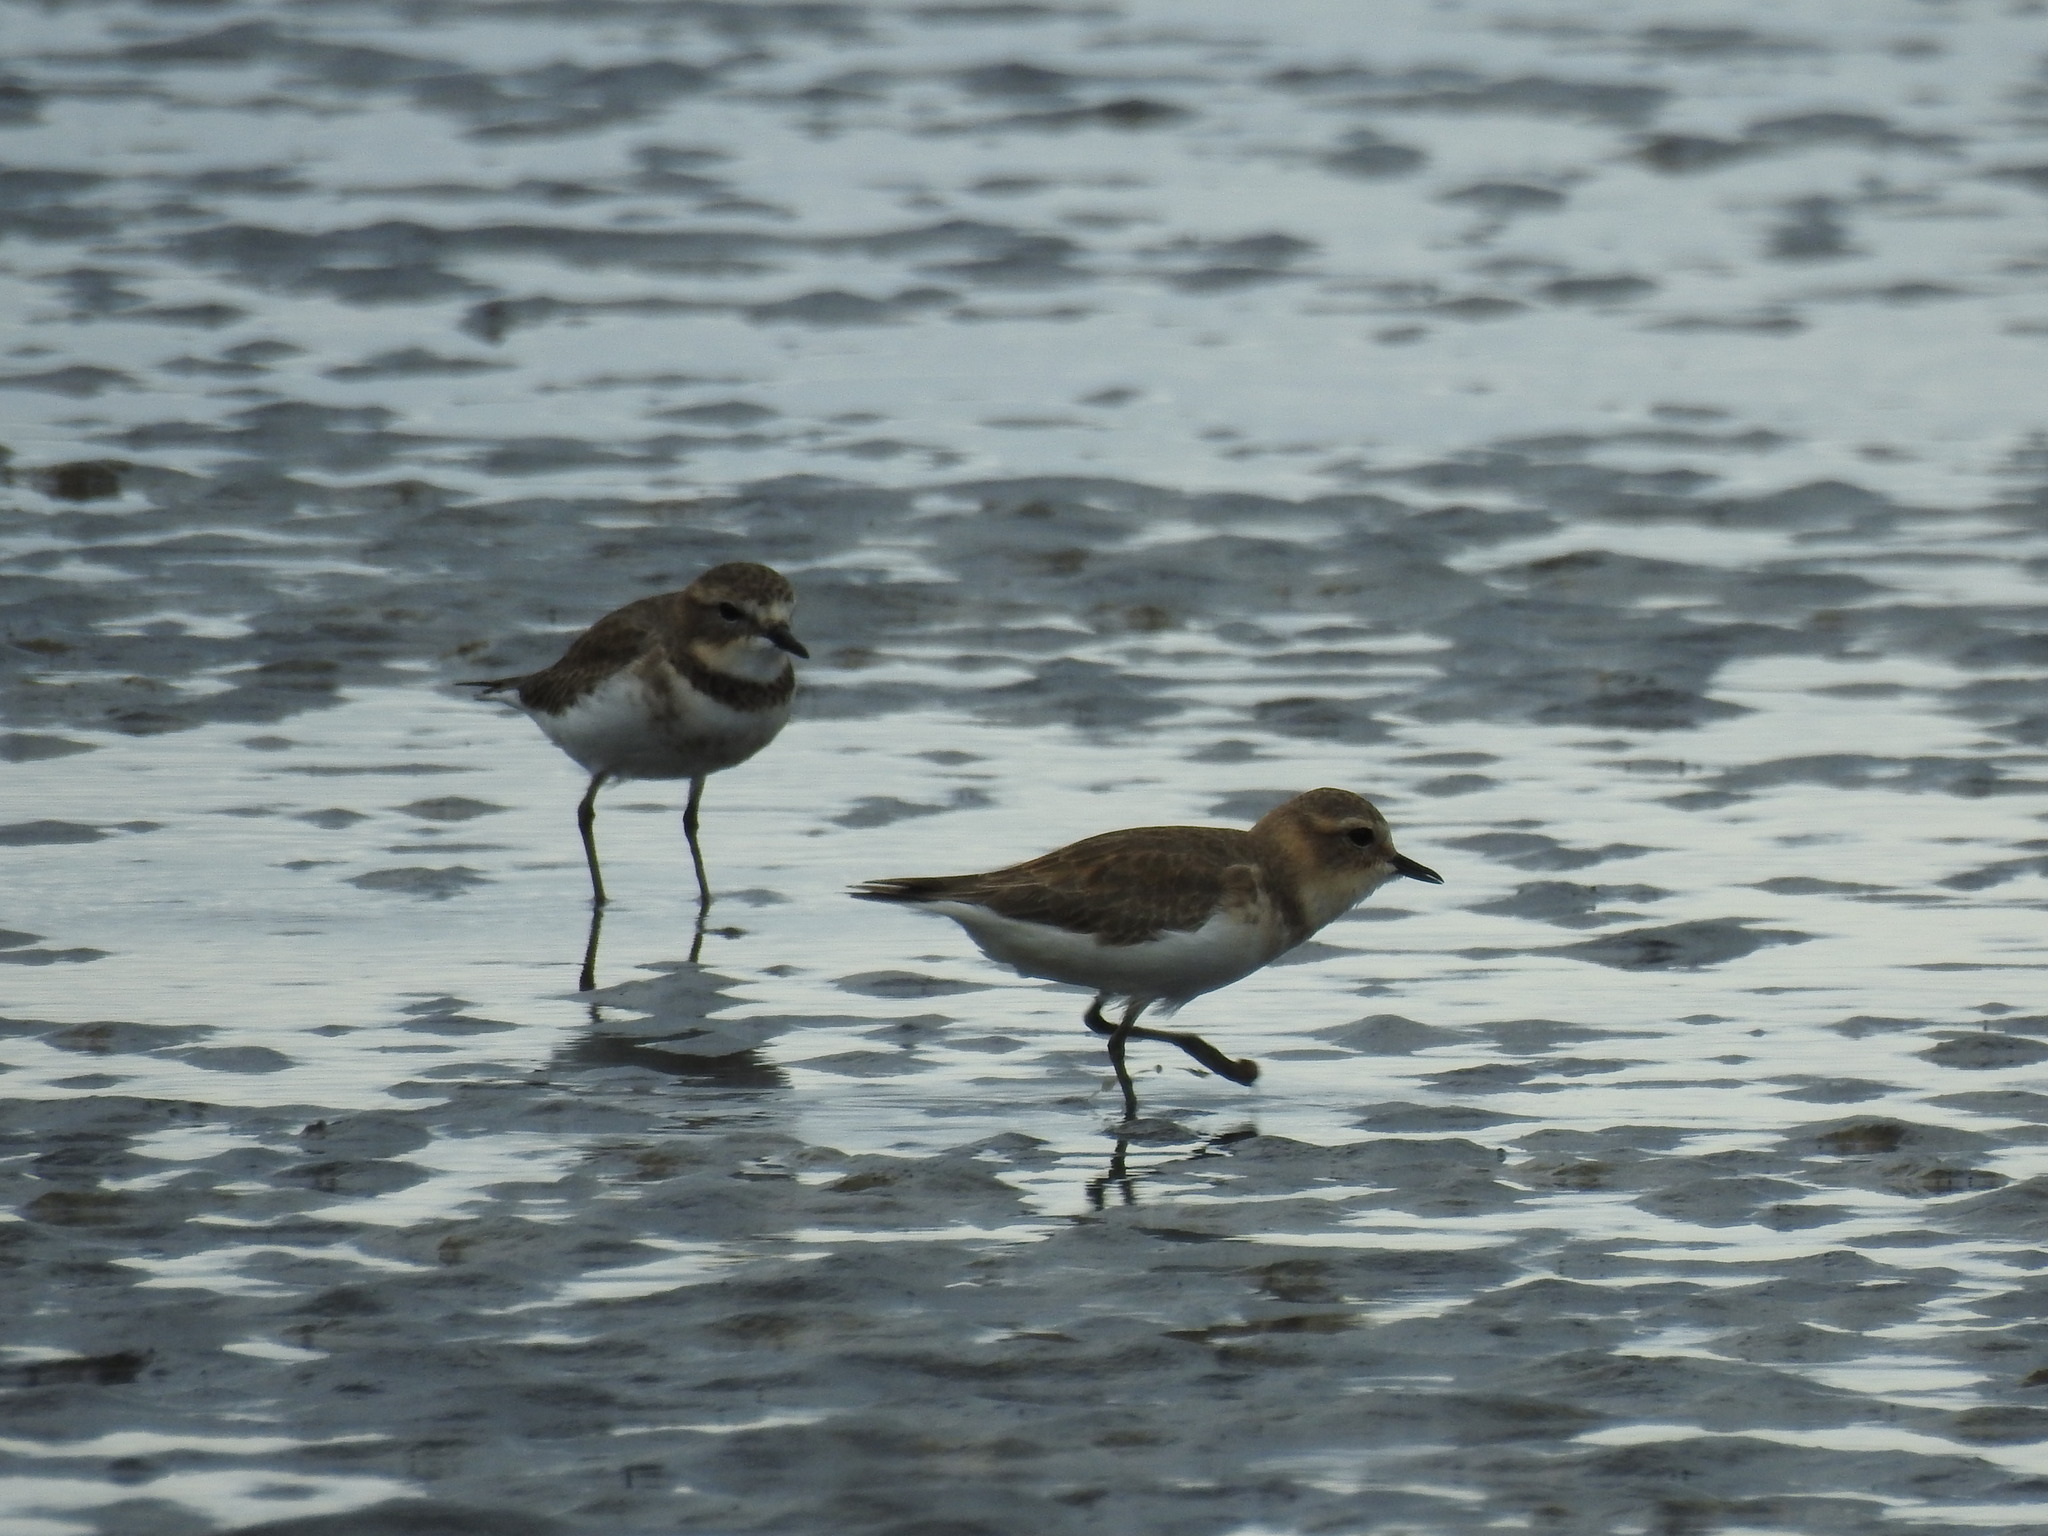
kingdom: Animalia
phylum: Chordata
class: Aves
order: Charadriiformes
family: Charadriidae
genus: Anarhynchus
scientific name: Anarhynchus
